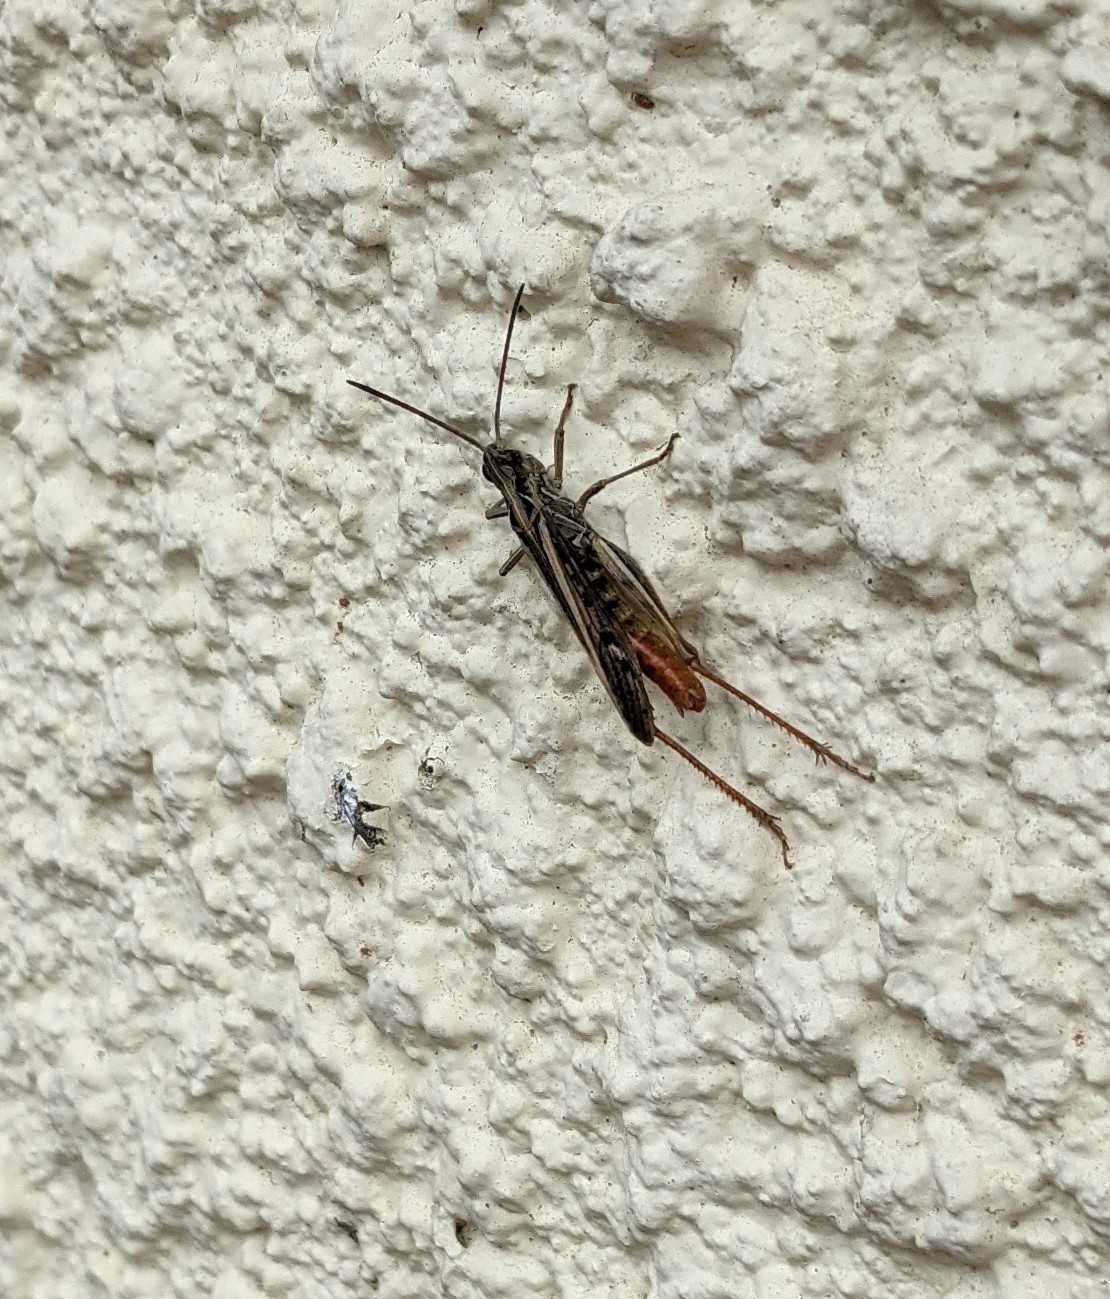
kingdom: Animalia
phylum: Arthropoda
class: Insecta
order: Orthoptera
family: Acrididae
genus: Chorthippus
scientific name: Chorthippus brunneus
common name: Field grasshopper
